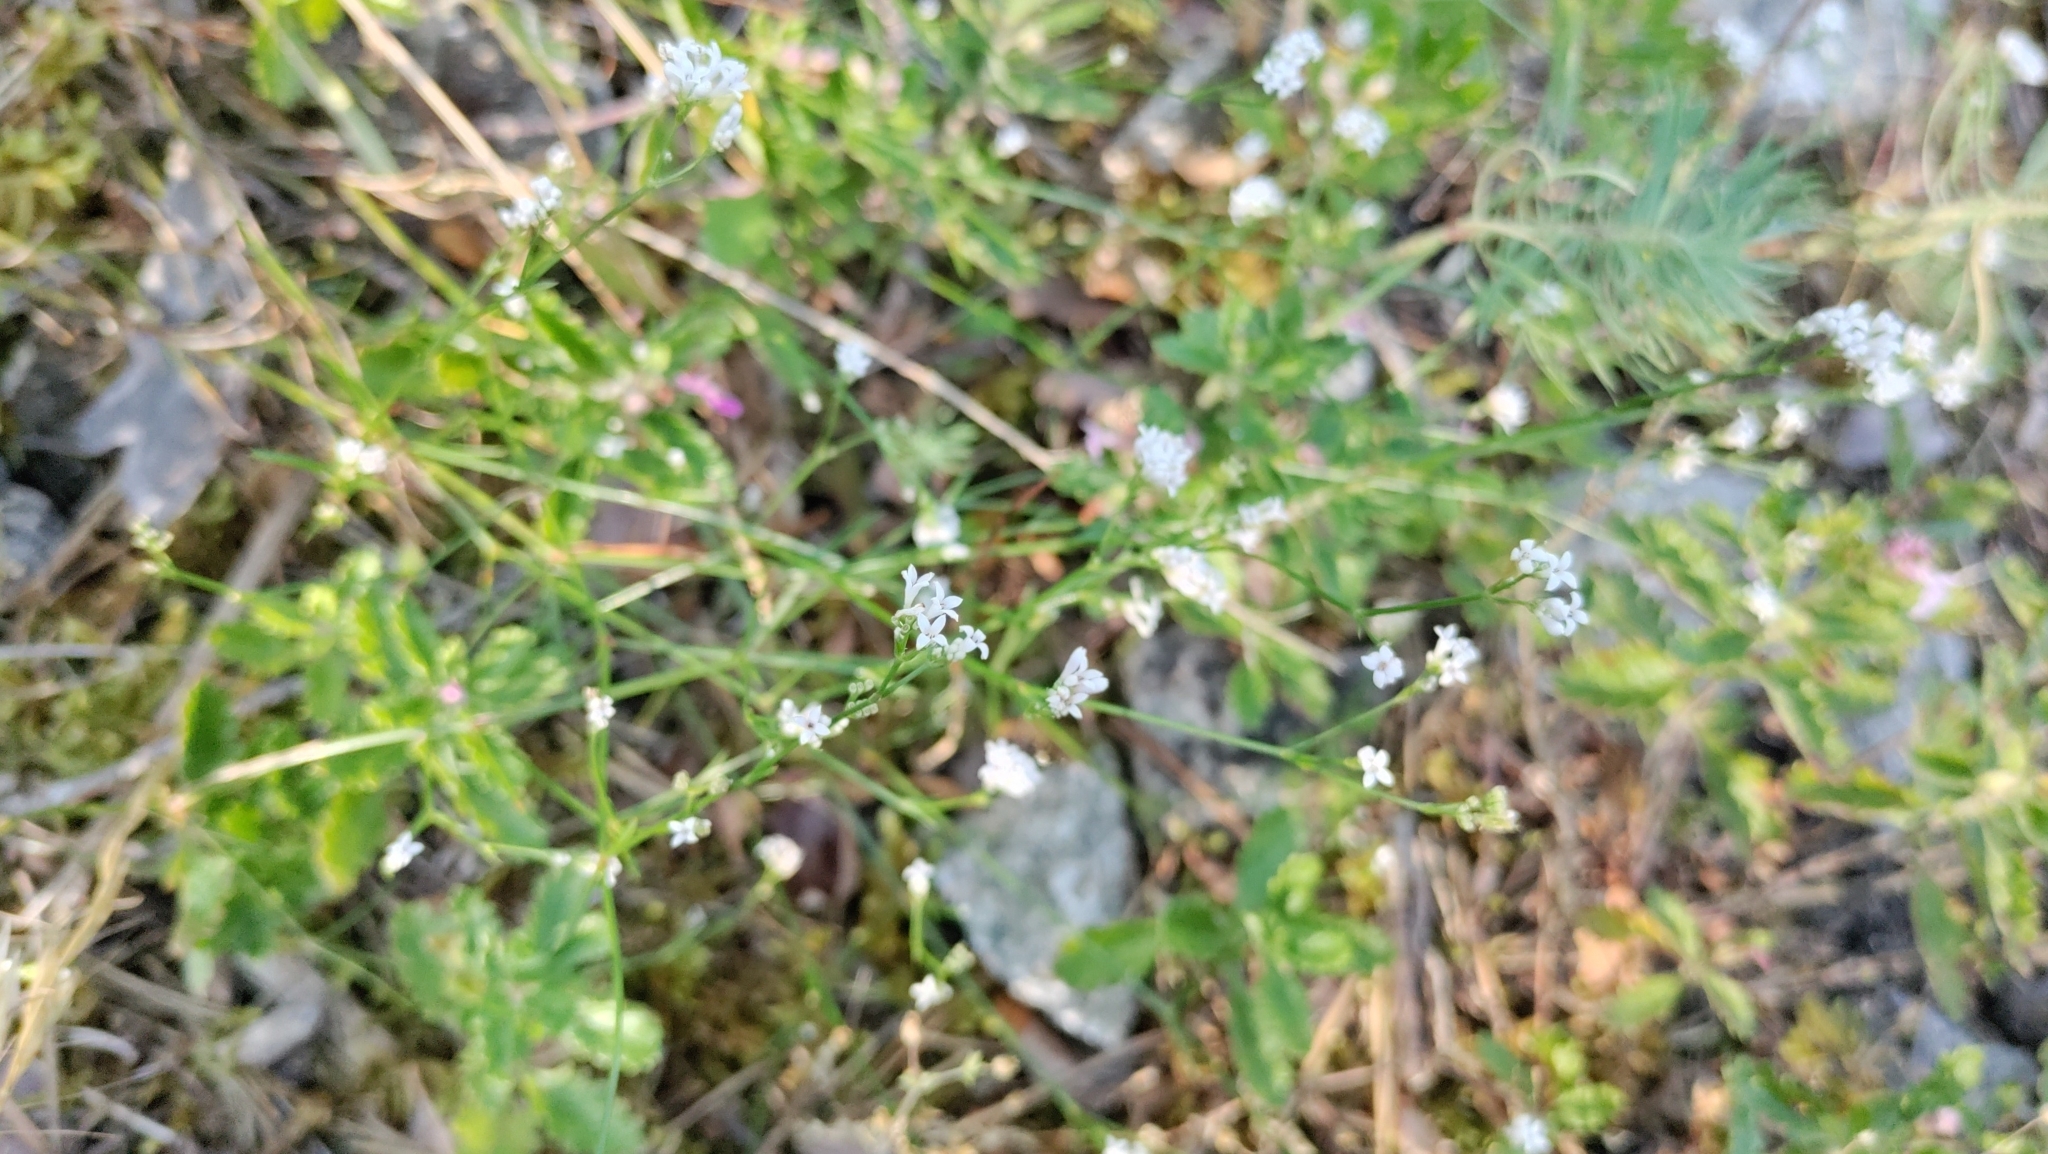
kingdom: Plantae
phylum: Tracheophyta
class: Magnoliopsida
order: Gentianales
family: Rubiaceae
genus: Cynanchica
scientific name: Cynanchica pyrenaica
